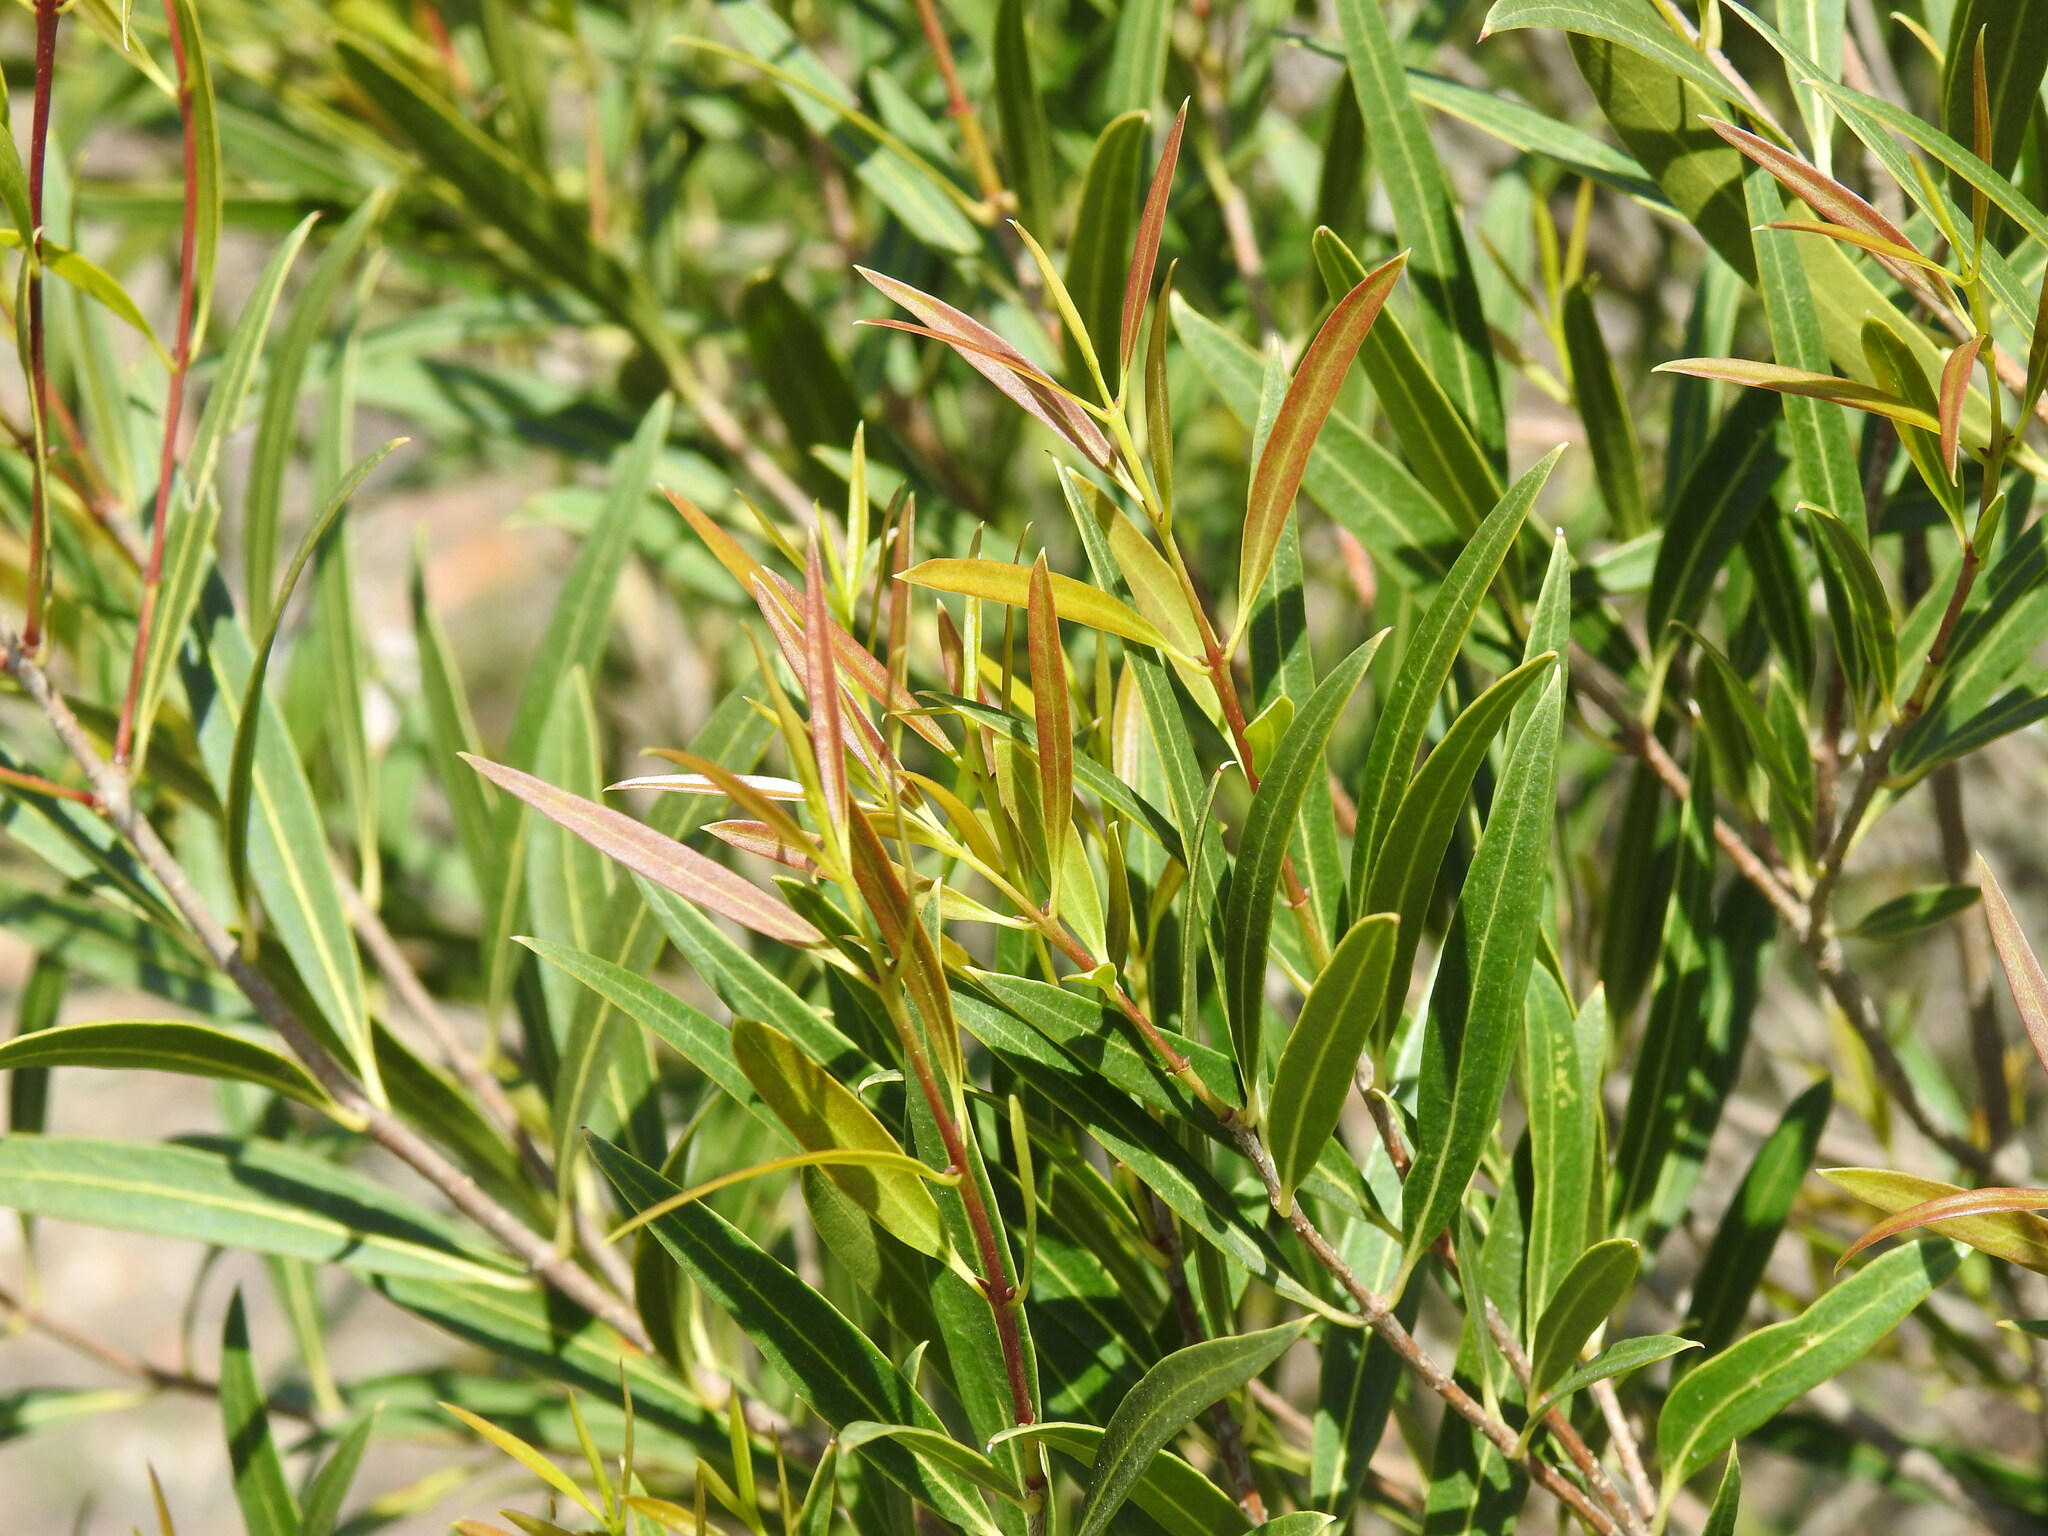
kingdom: Plantae
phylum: Tracheophyta
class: Magnoliopsida
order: Lamiales
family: Oleaceae
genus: Phillyrea
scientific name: Phillyrea angustifolia
